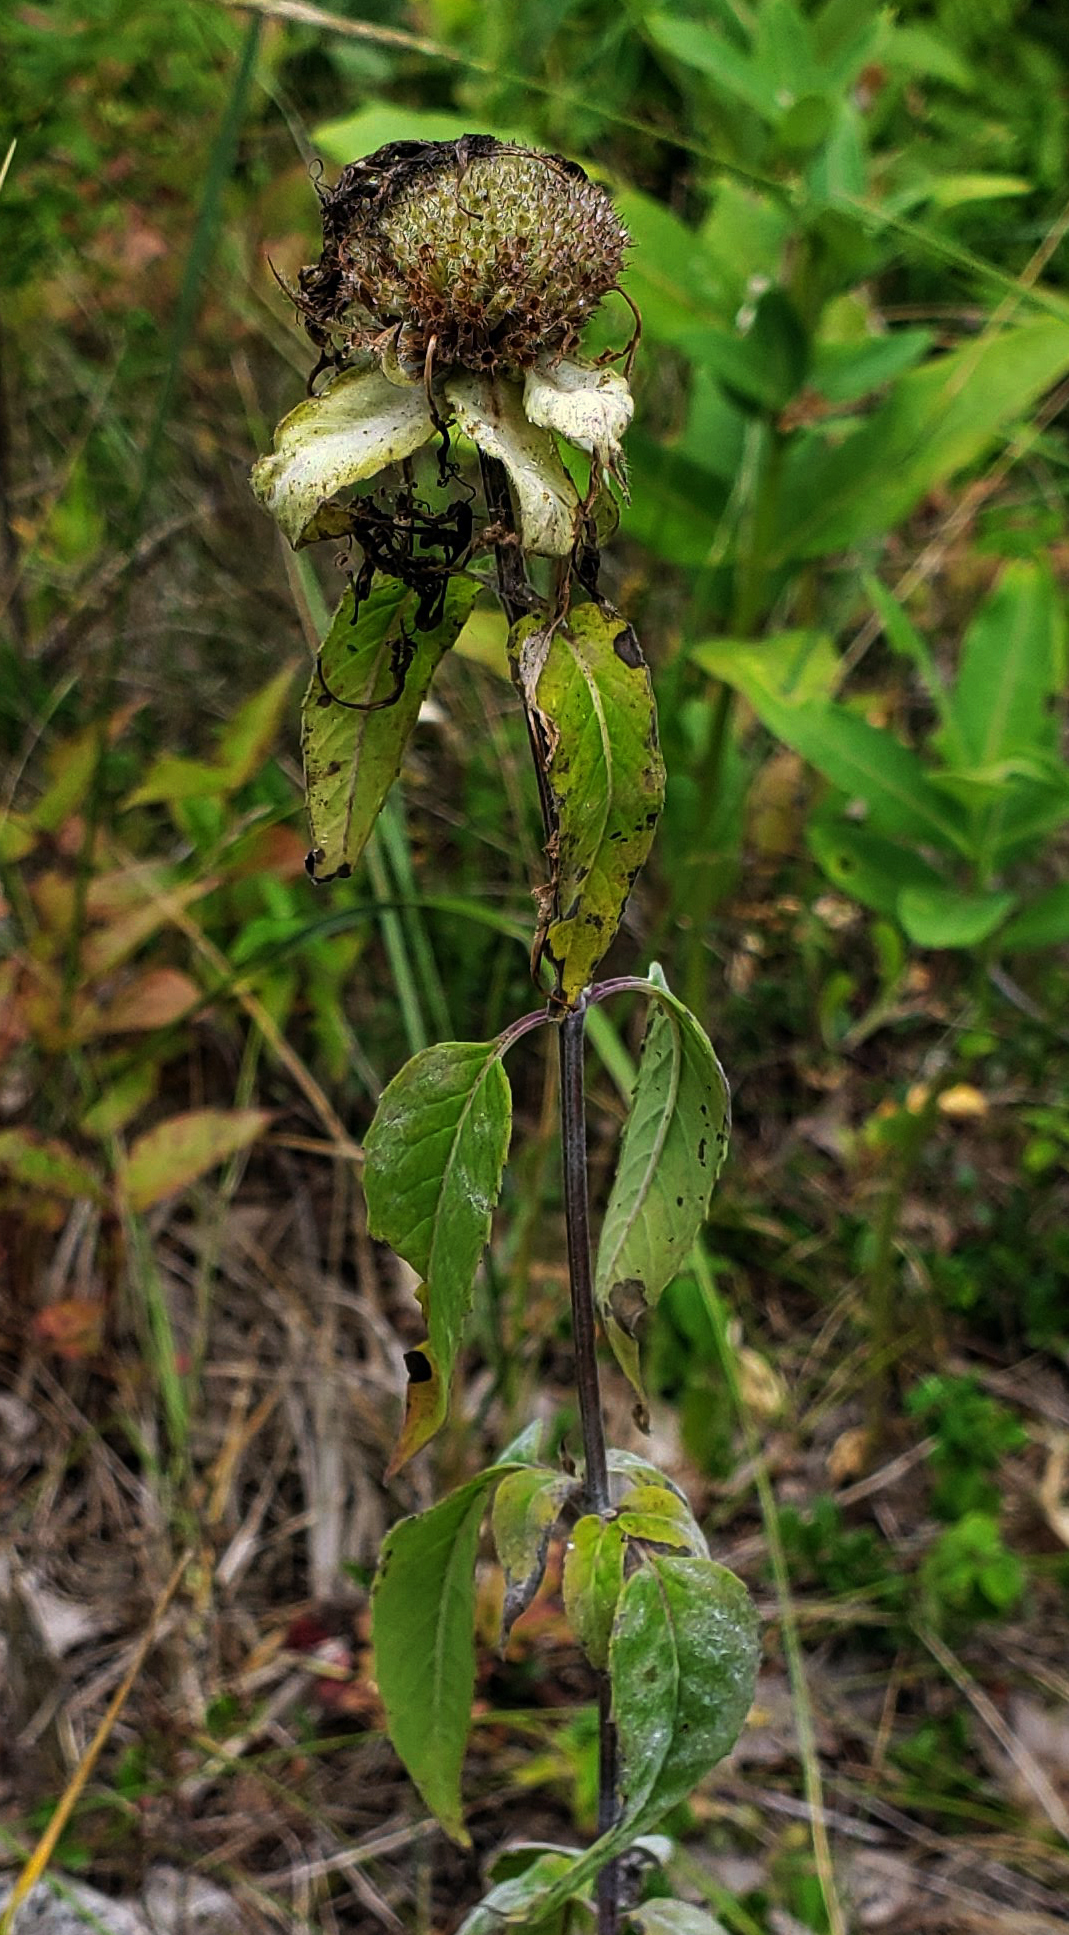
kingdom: Plantae
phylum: Tracheophyta
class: Magnoliopsida
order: Lamiales
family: Lamiaceae
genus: Monarda
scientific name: Monarda fistulosa
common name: Purple beebalm
